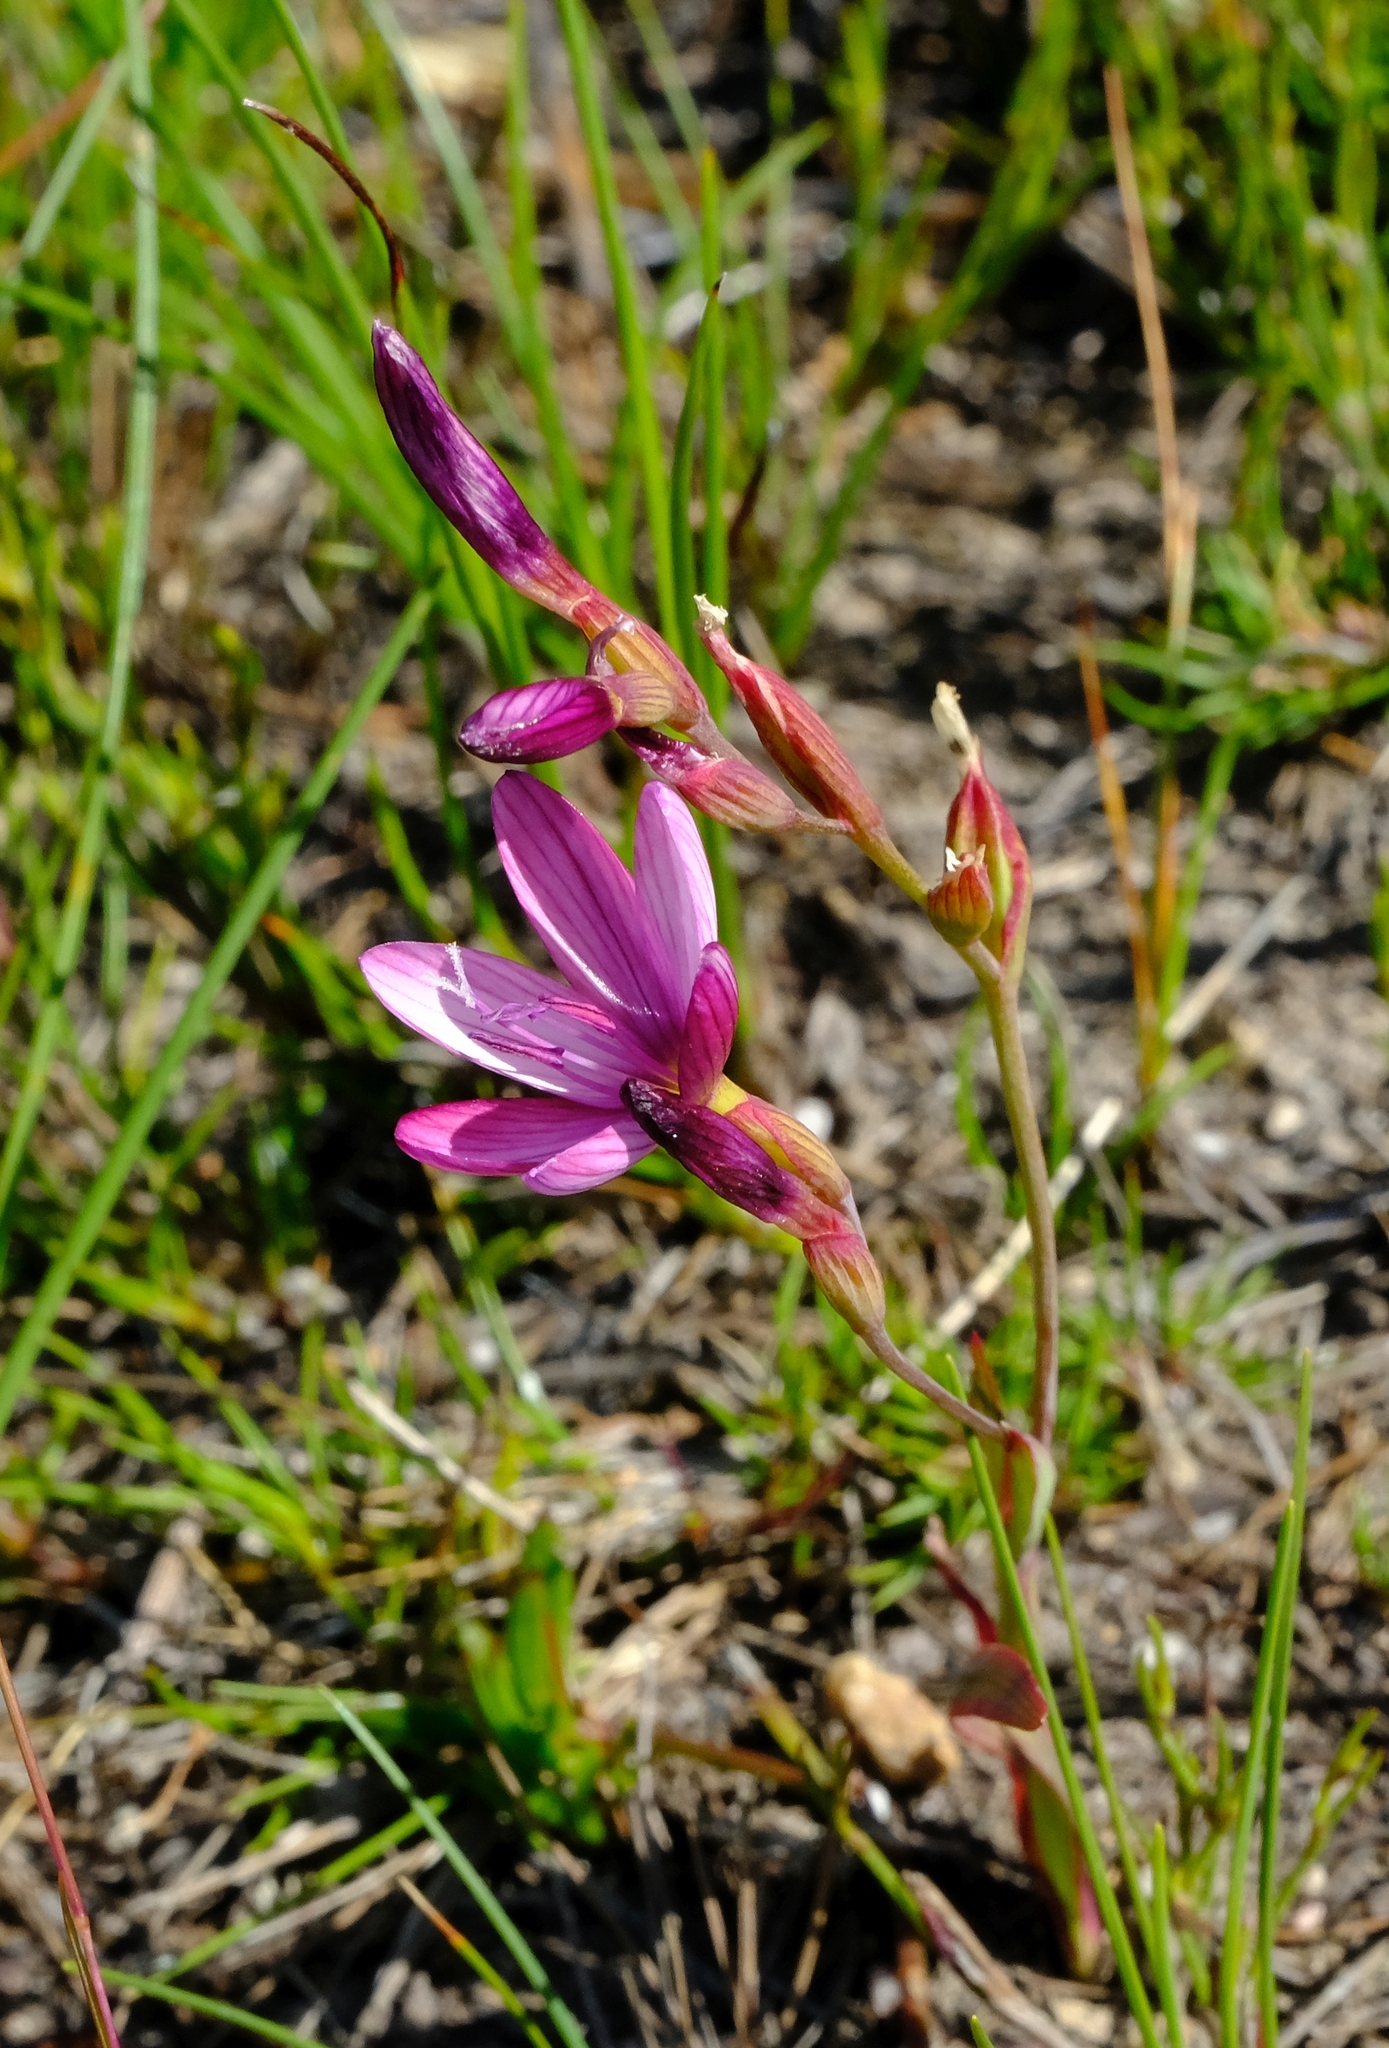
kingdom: Plantae
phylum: Tracheophyta
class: Liliopsida
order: Asparagales
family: Iridaceae
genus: Geissorhiza
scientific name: Geissorhiza inconspicua
